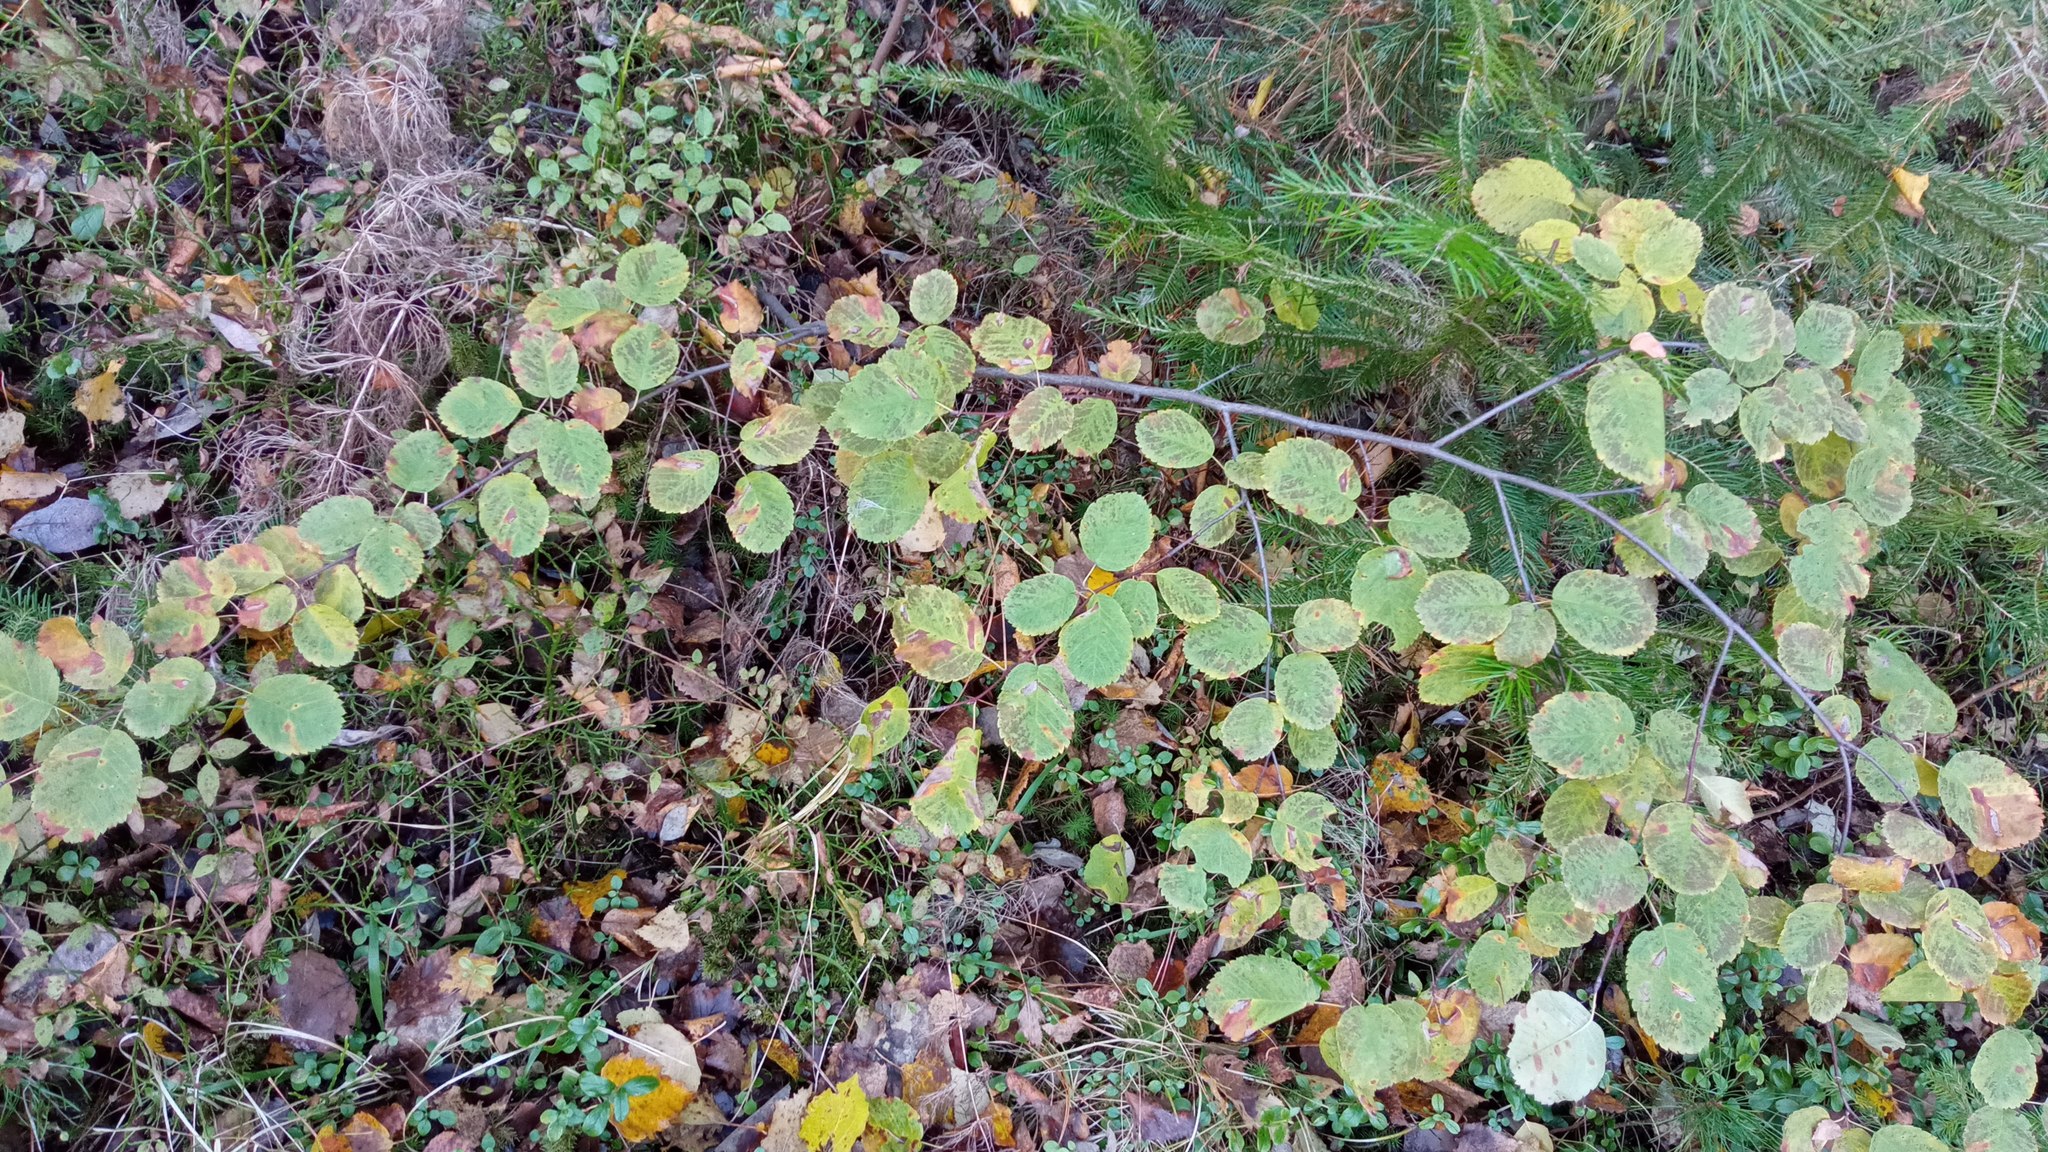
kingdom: Plantae
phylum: Tracheophyta
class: Magnoliopsida
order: Rosales
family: Rosaceae
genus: Amelanchier
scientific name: Amelanchier alnifolia
